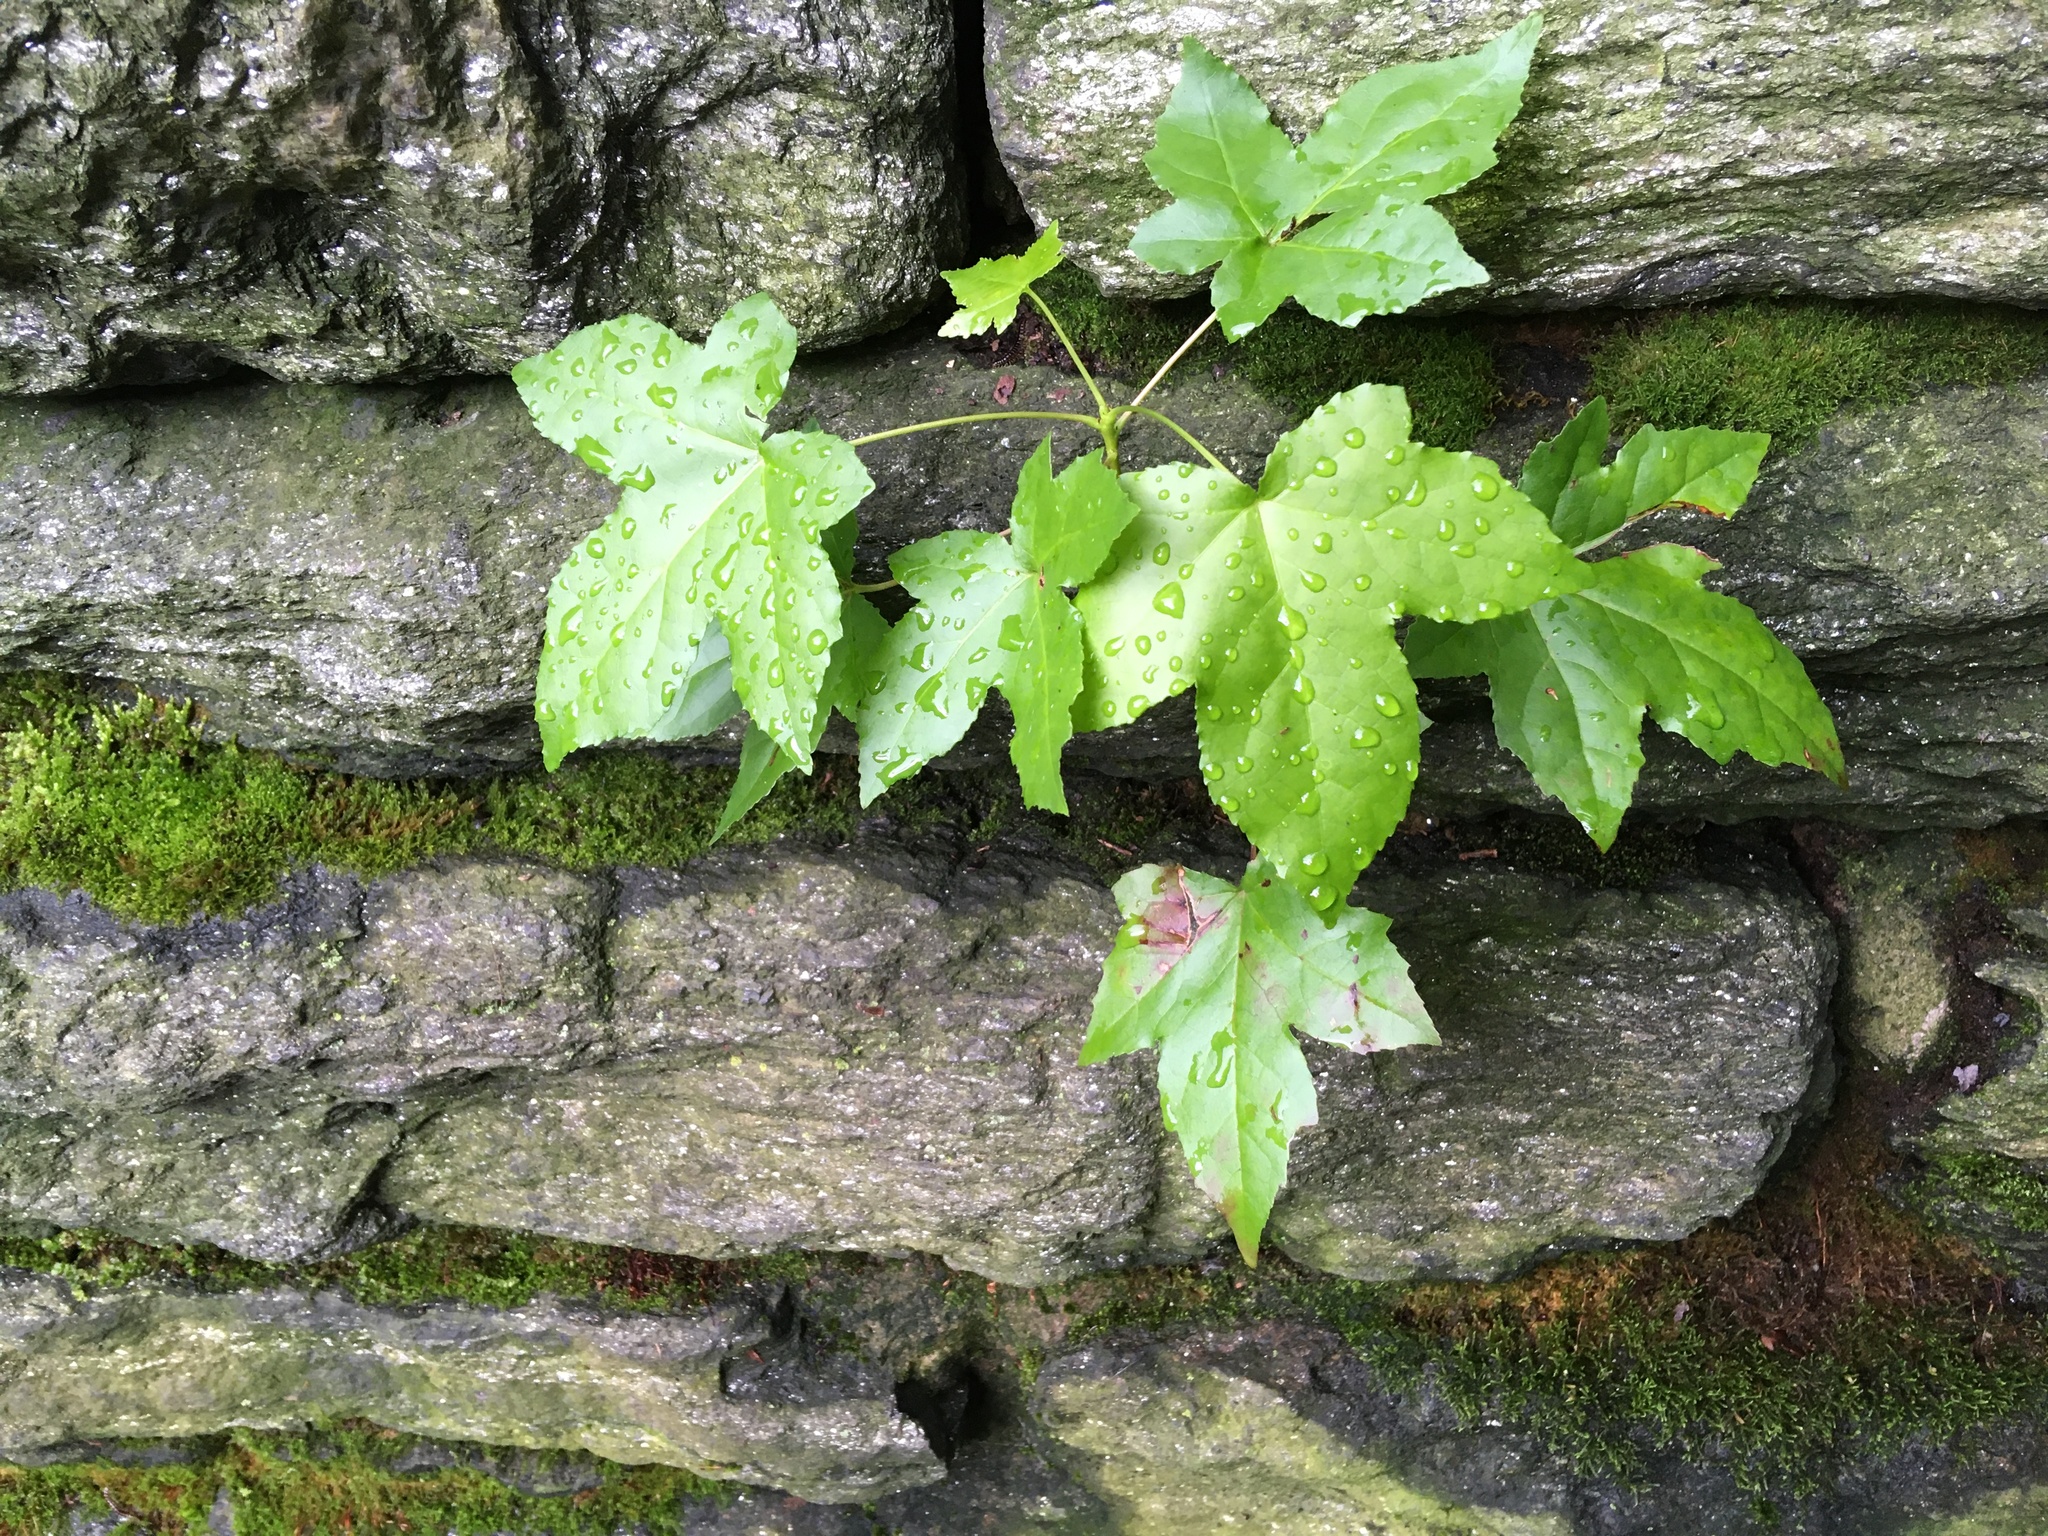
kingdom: Plantae
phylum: Tracheophyta
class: Magnoliopsida
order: Saxifragales
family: Altingiaceae
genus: Liquidambar
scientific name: Liquidambar styraciflua
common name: Sweet gum
